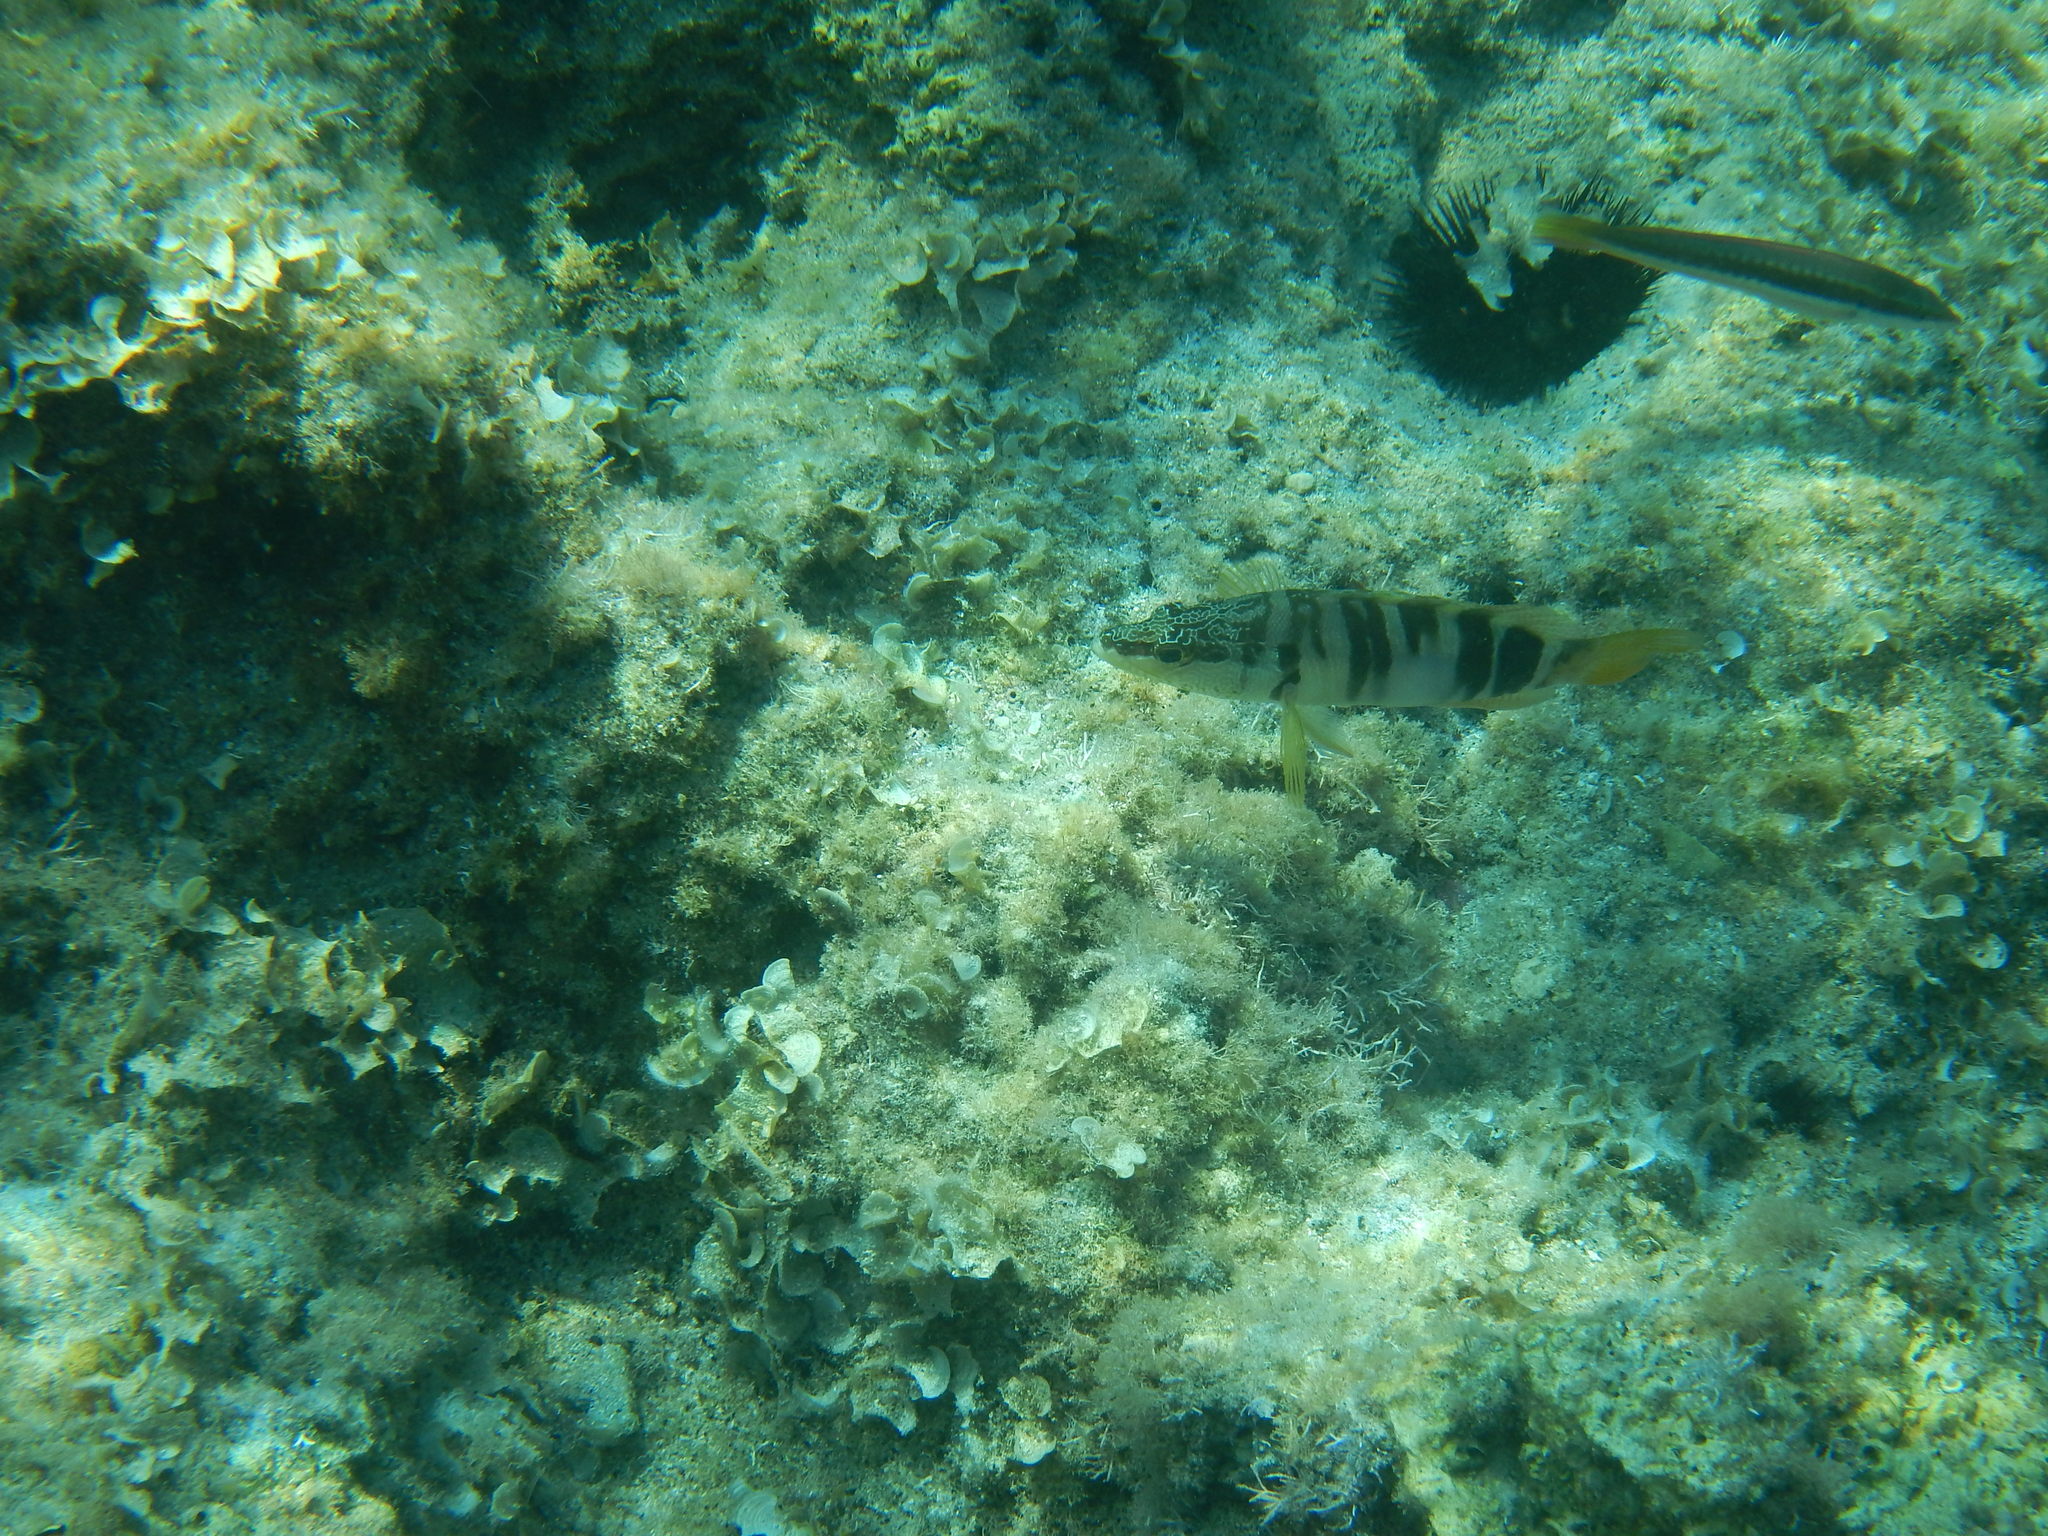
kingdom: Animalia
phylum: Chordata
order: Perciformes
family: Serranidae
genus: Serranus
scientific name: Serranus scriba
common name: Painted comber
